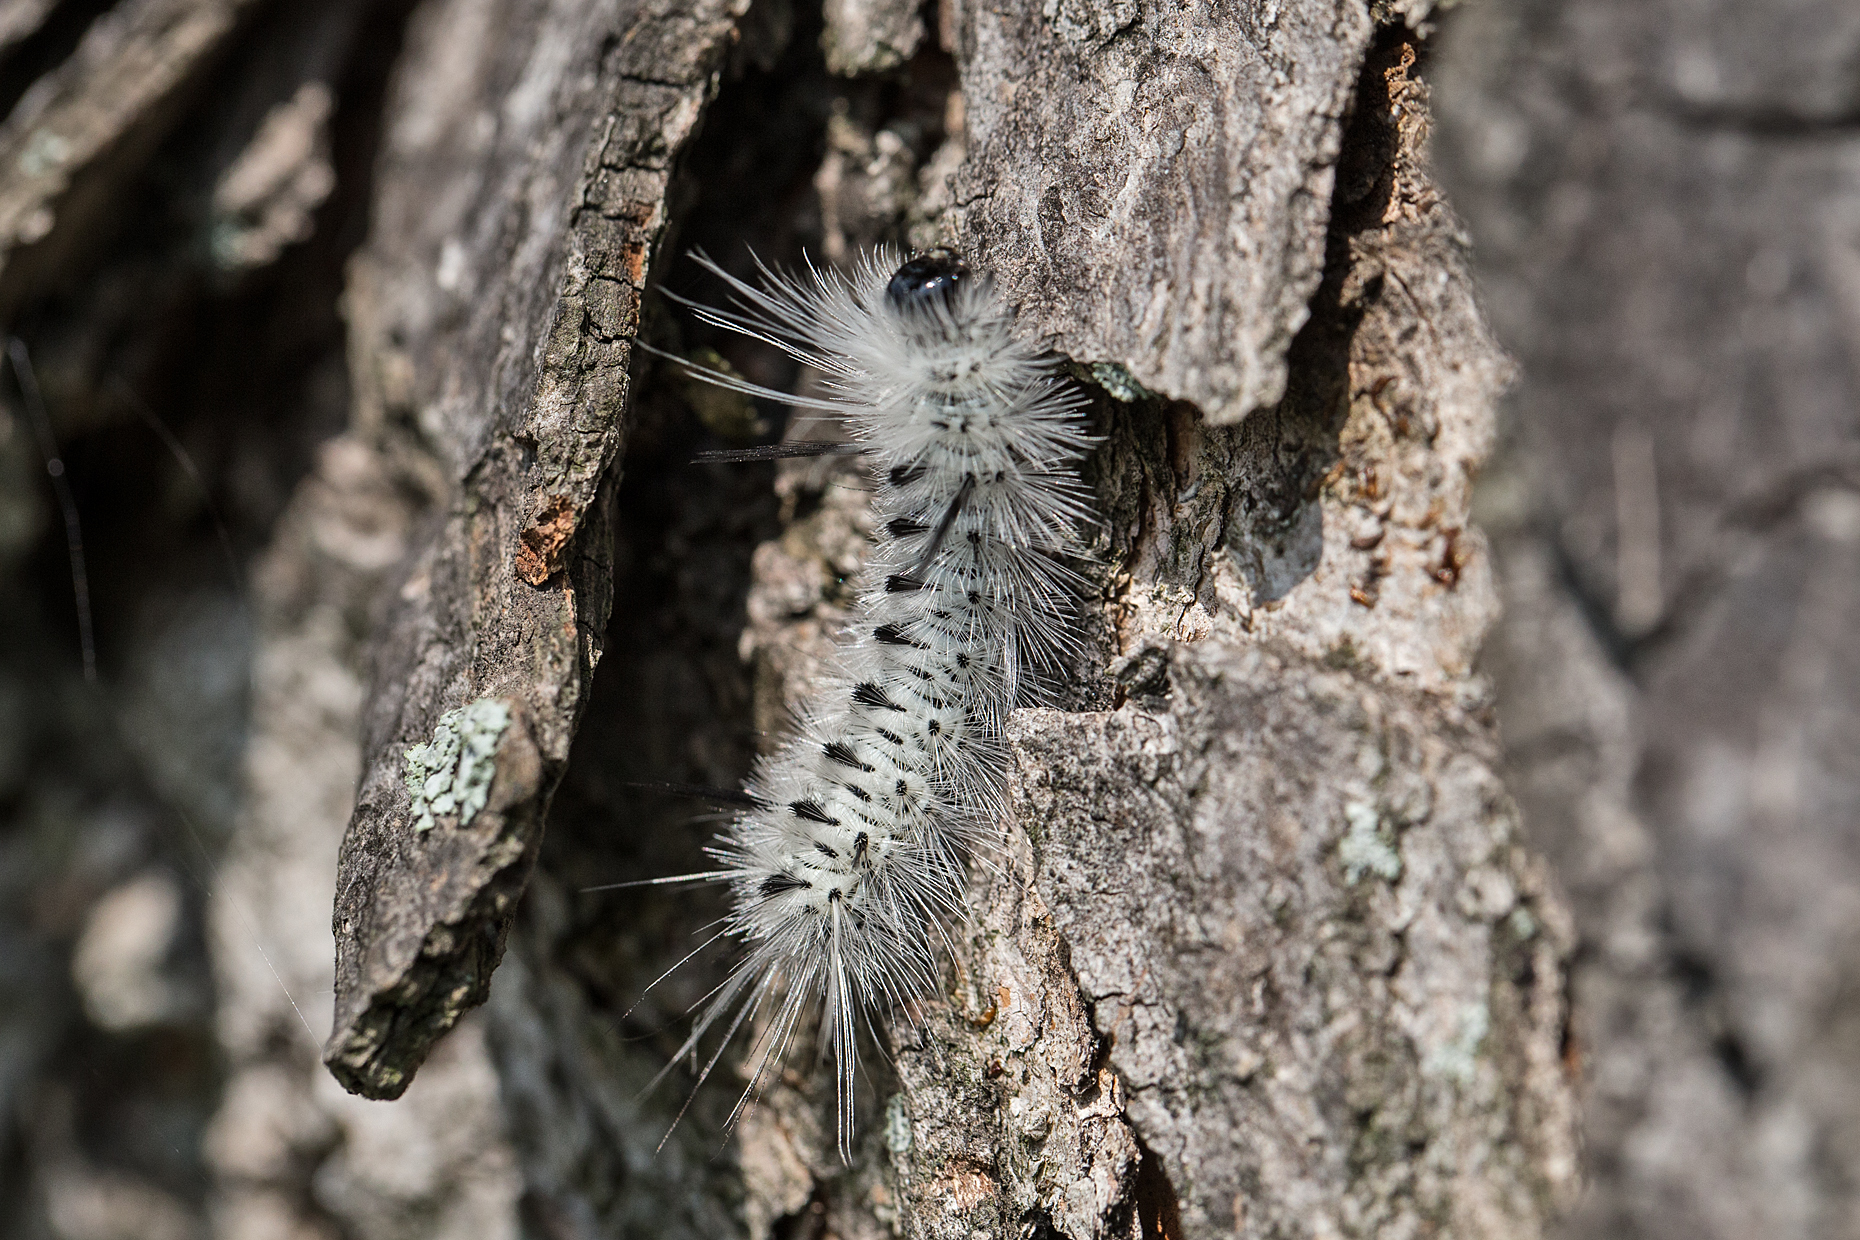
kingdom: Animalia
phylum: Arthropoda
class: Insecta
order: Lepidoptera
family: Erebidae
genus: Lophocampa
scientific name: Lophocampa caryae
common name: Hickory tussock moth
